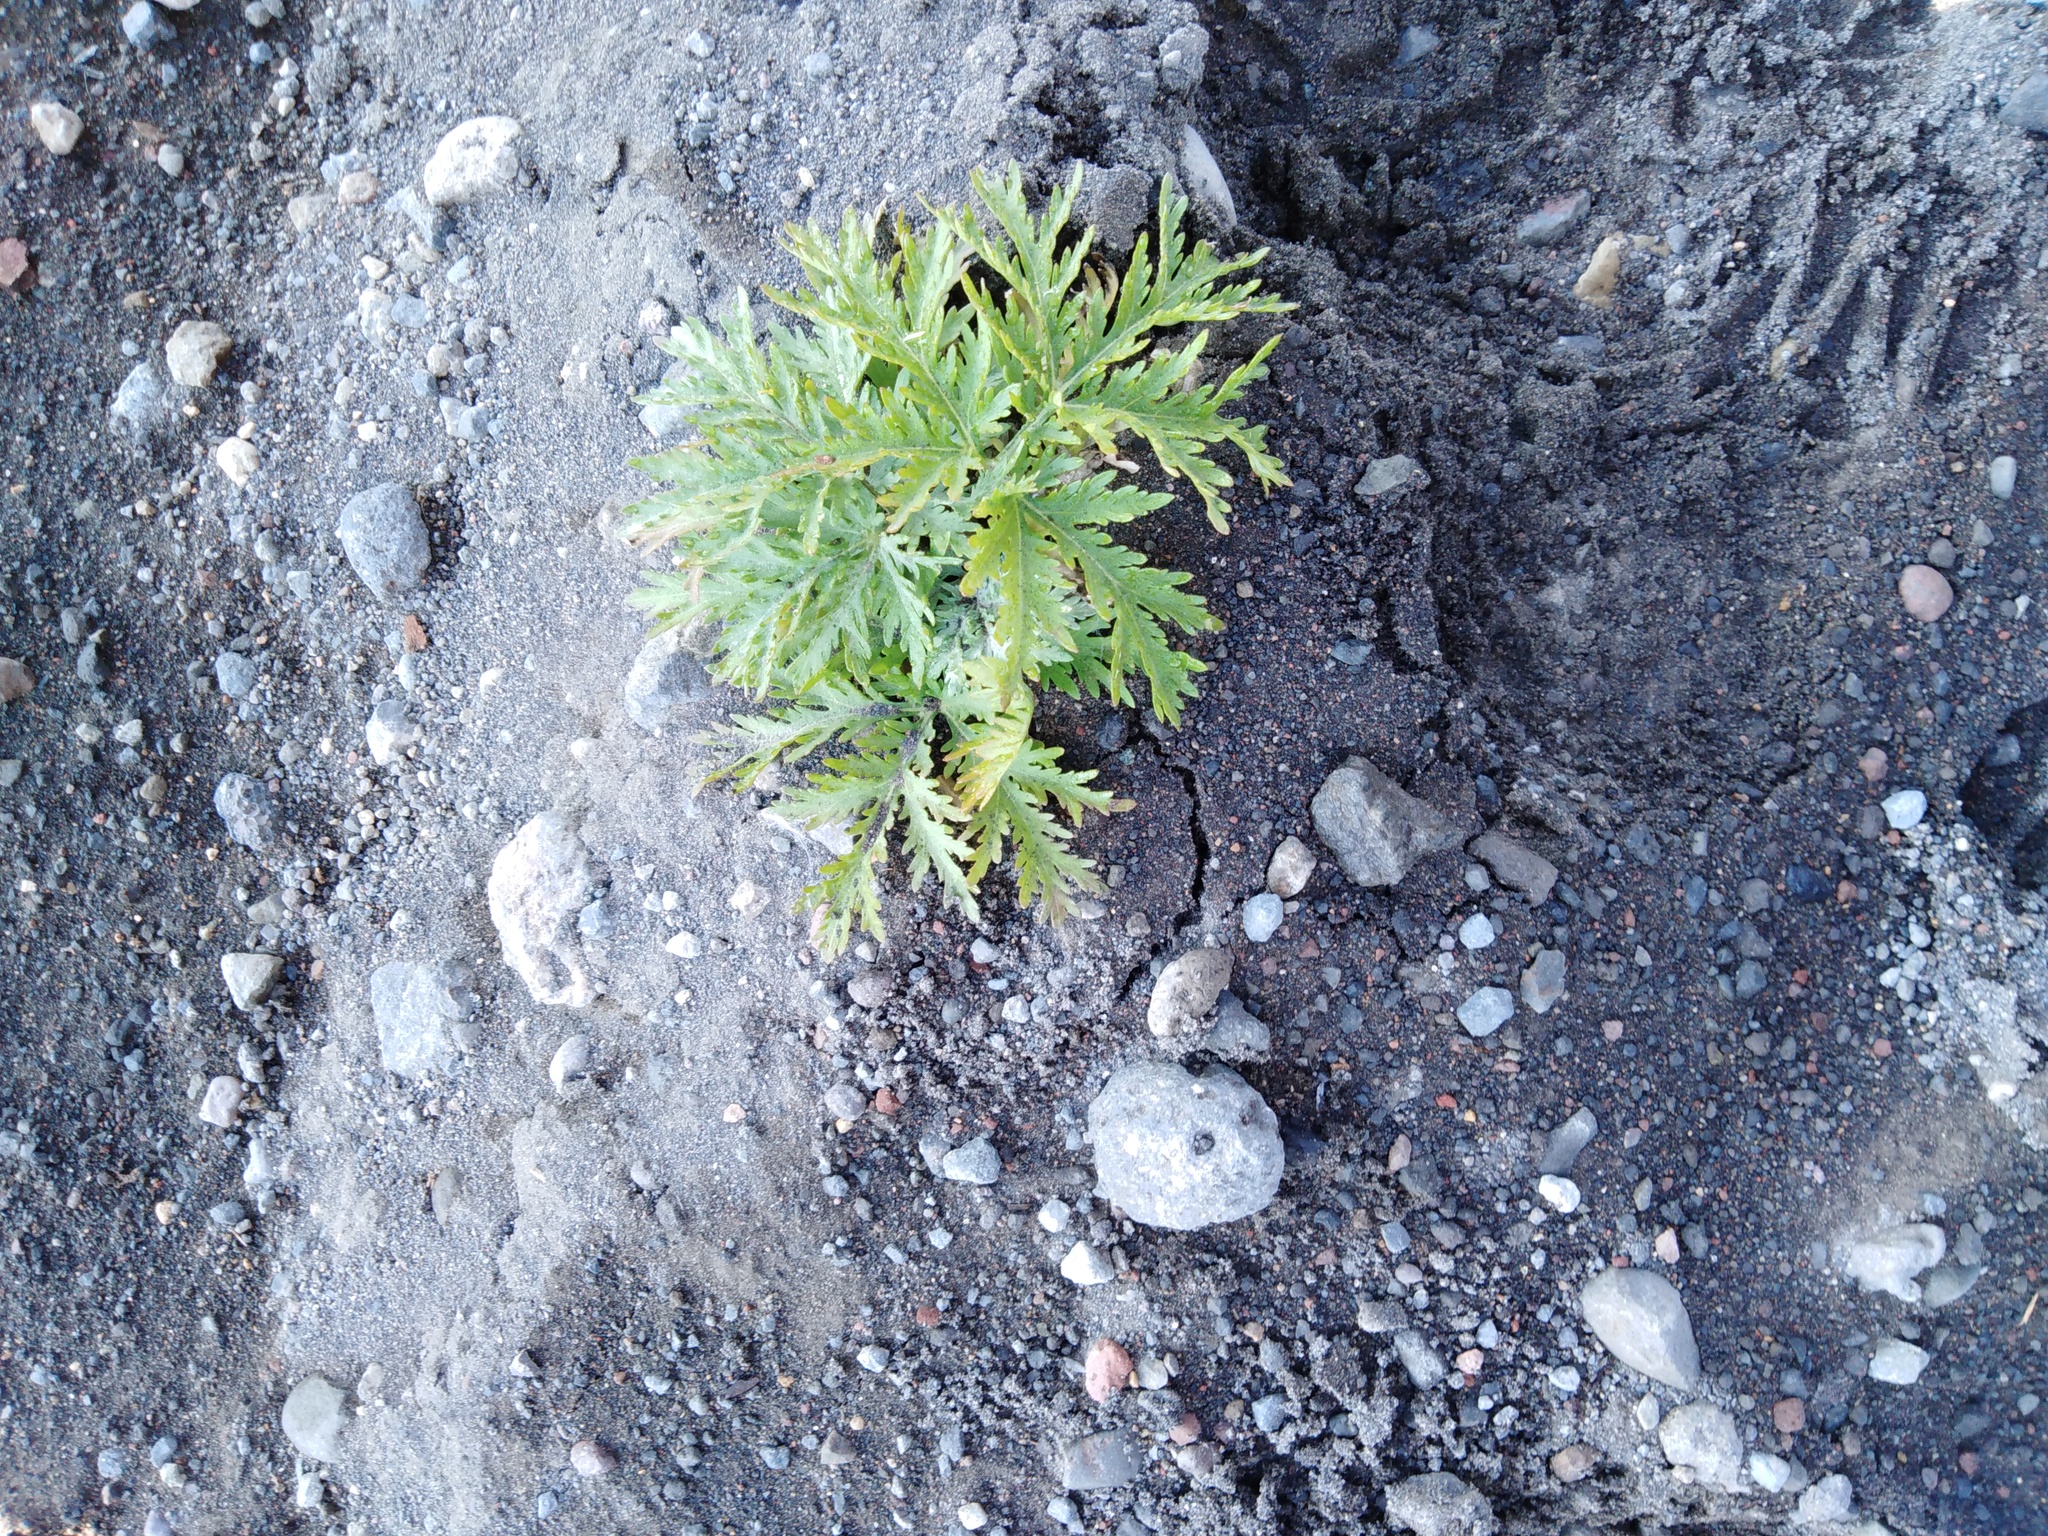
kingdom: Plantae
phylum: Tracheophyta
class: Magnoliopsida
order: Asterales
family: Asteraceae
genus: Artemisia
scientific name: Artemisia sieversiana
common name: Sieversian wormwood
